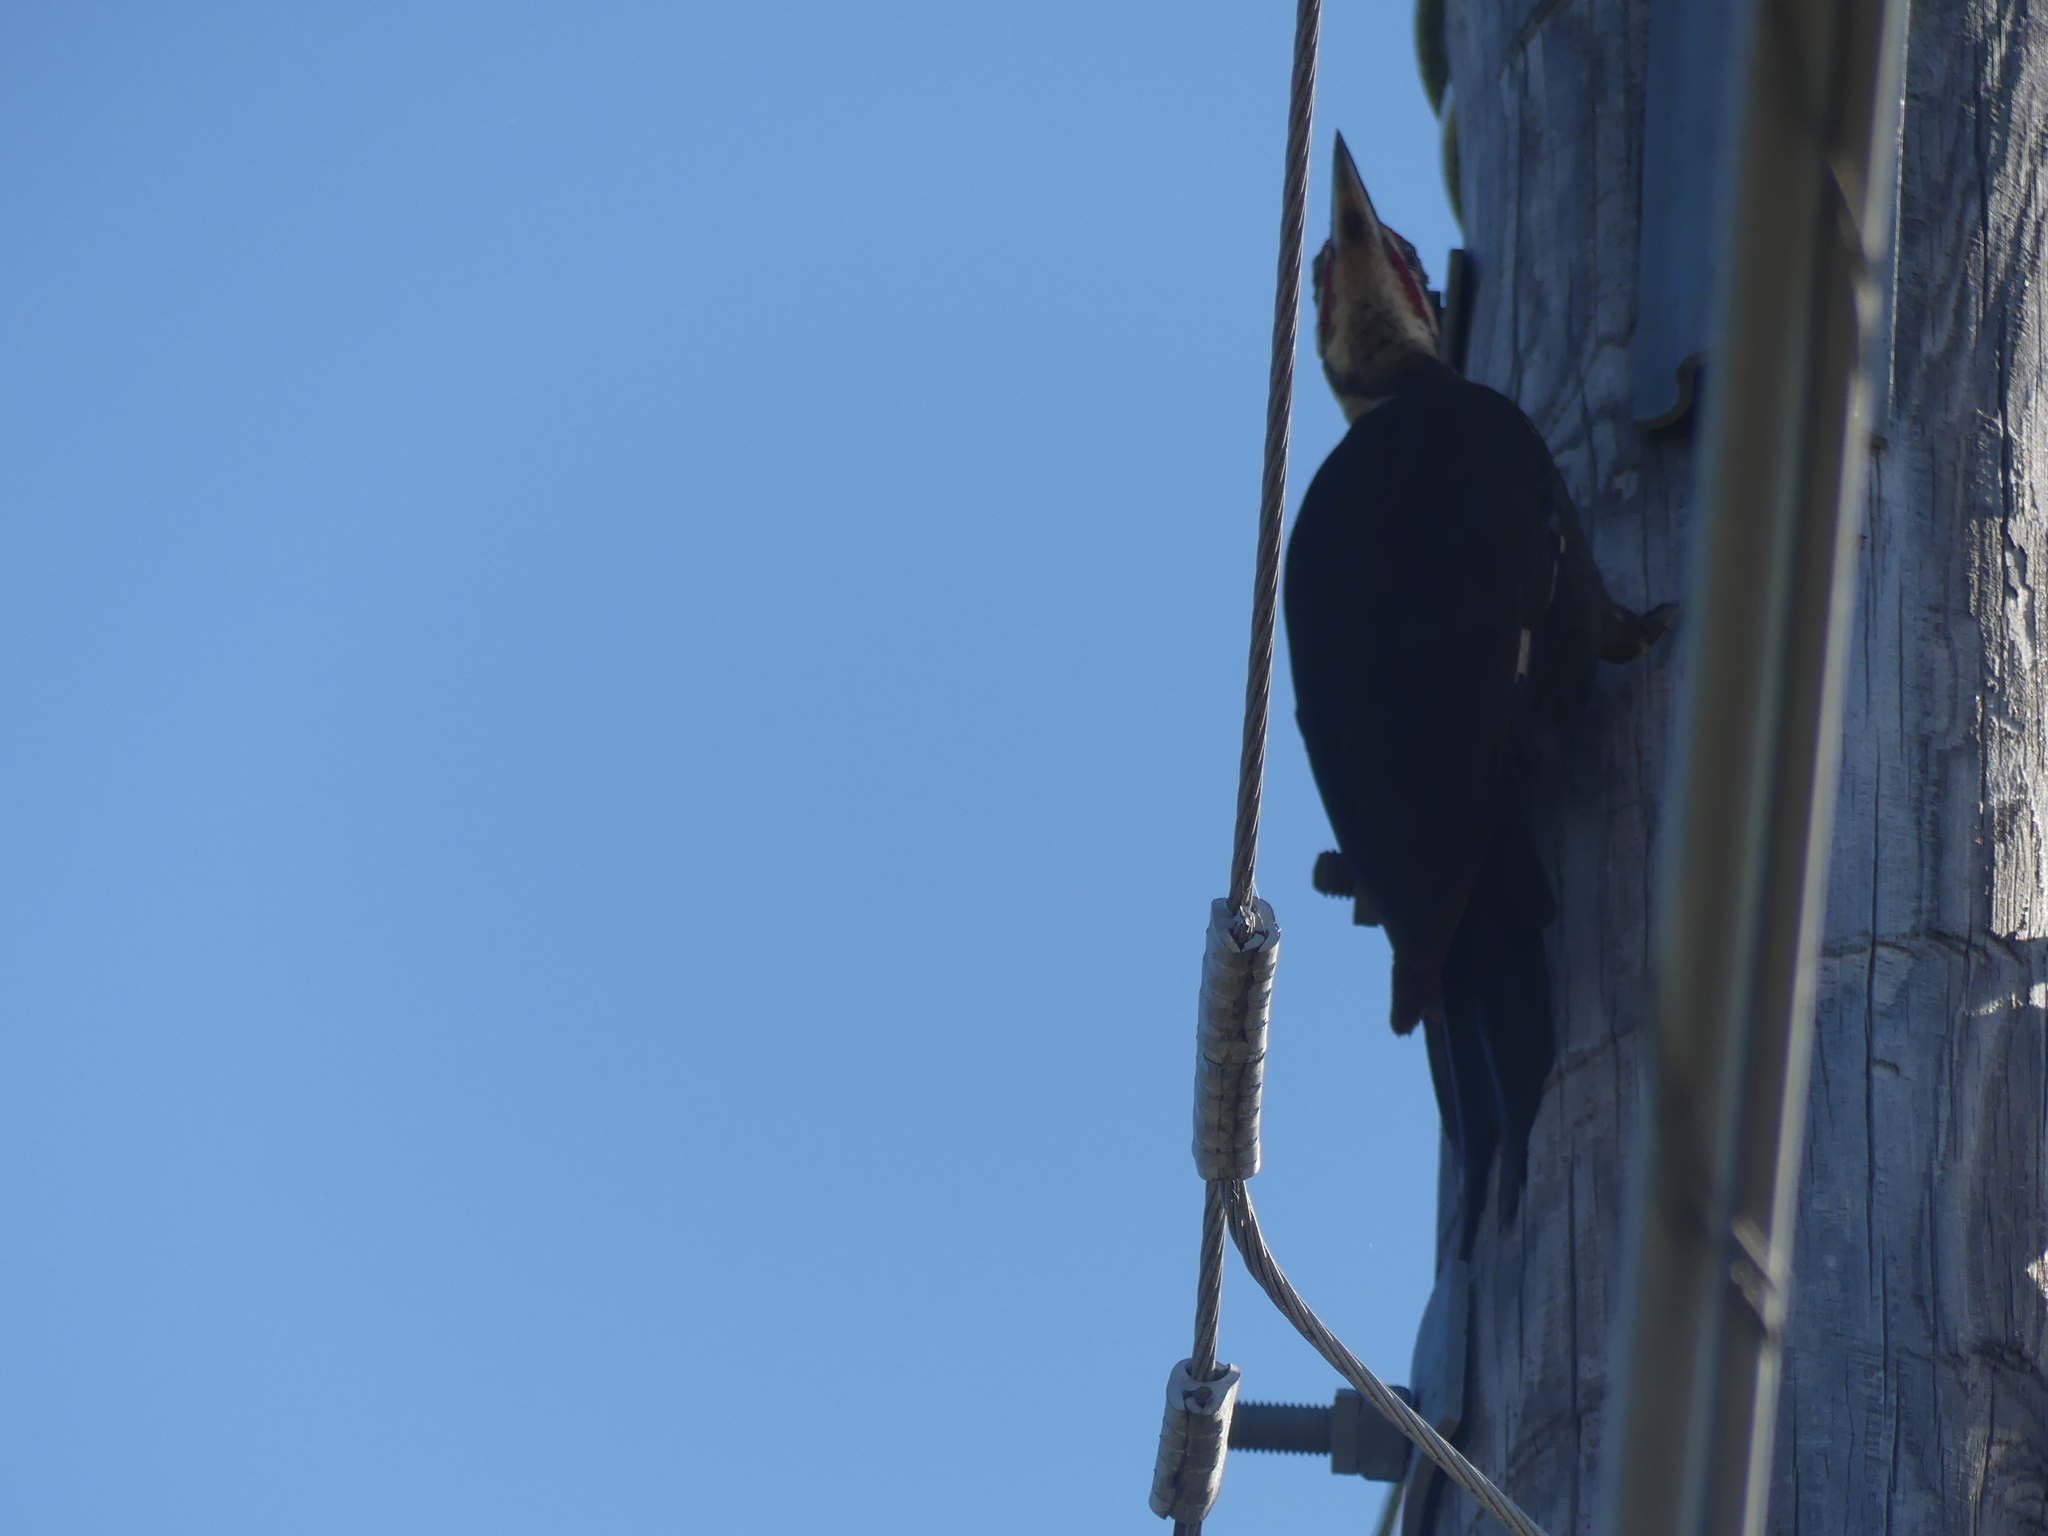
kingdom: Animalia
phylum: Chordata
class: Aves
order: Piciformes
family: Picidae
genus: Dryocopus
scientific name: Dryocopus pileatus
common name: Pileated woodpecker
